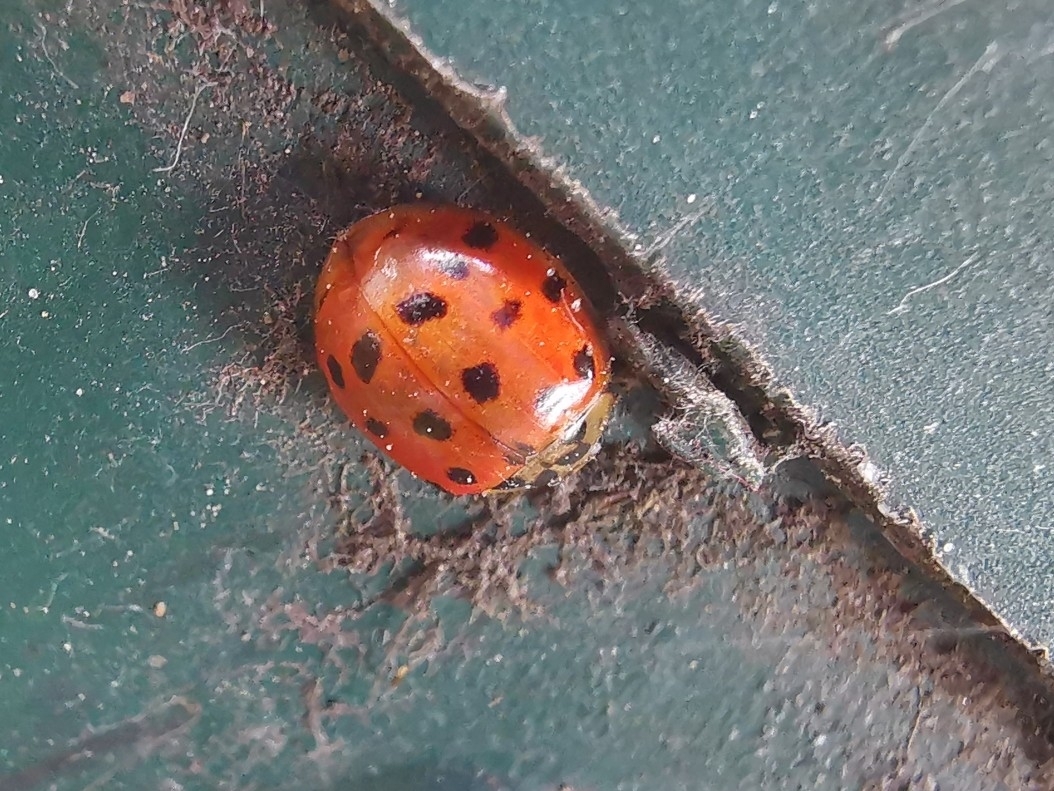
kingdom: Animalia
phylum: Arthropoda
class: Insecta
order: Coleoptera
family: Coccinellidae
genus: Harmonia
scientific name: Harmonia axyridis
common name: Harlequin ladybird
